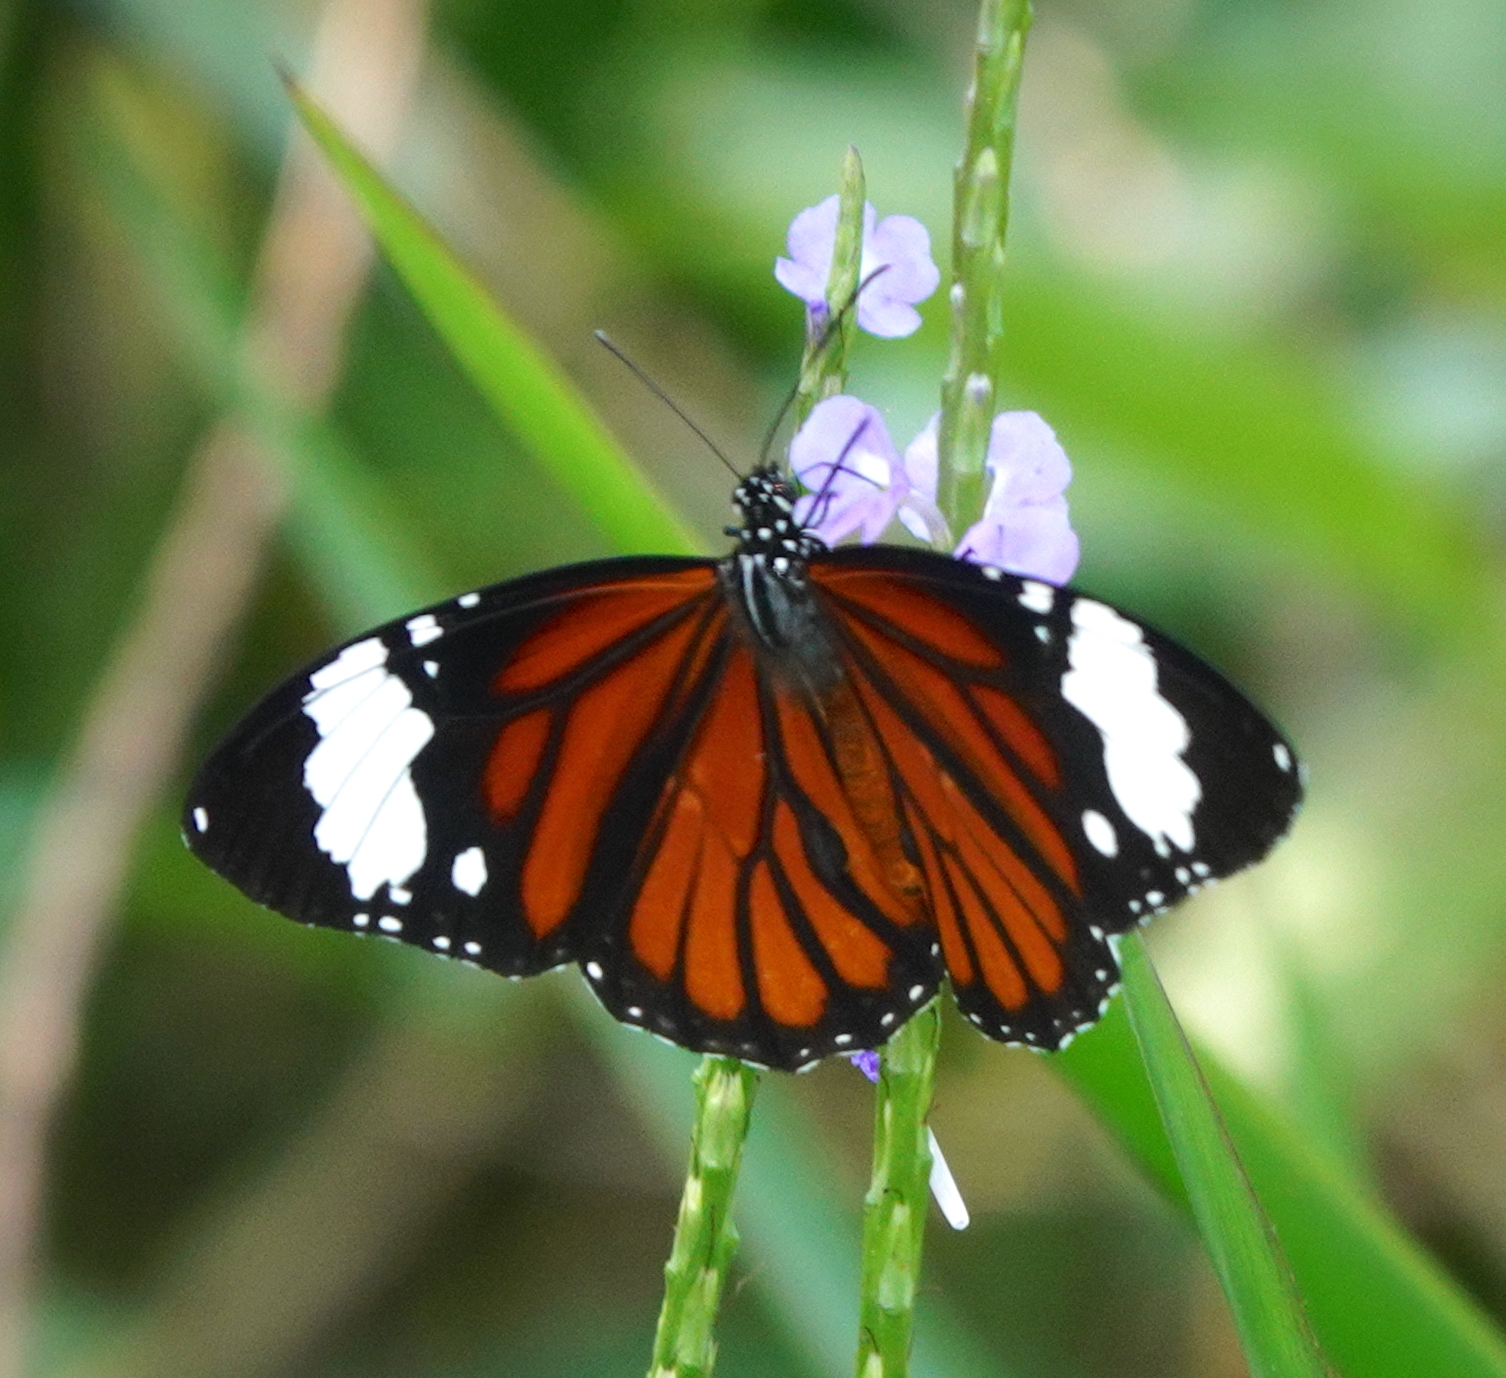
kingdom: Animalia
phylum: Arthropoda
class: Insecta
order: Lepidoptera
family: Nymphalidae
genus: Danaus
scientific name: Danaus genutia
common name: Common tiger butterfly
